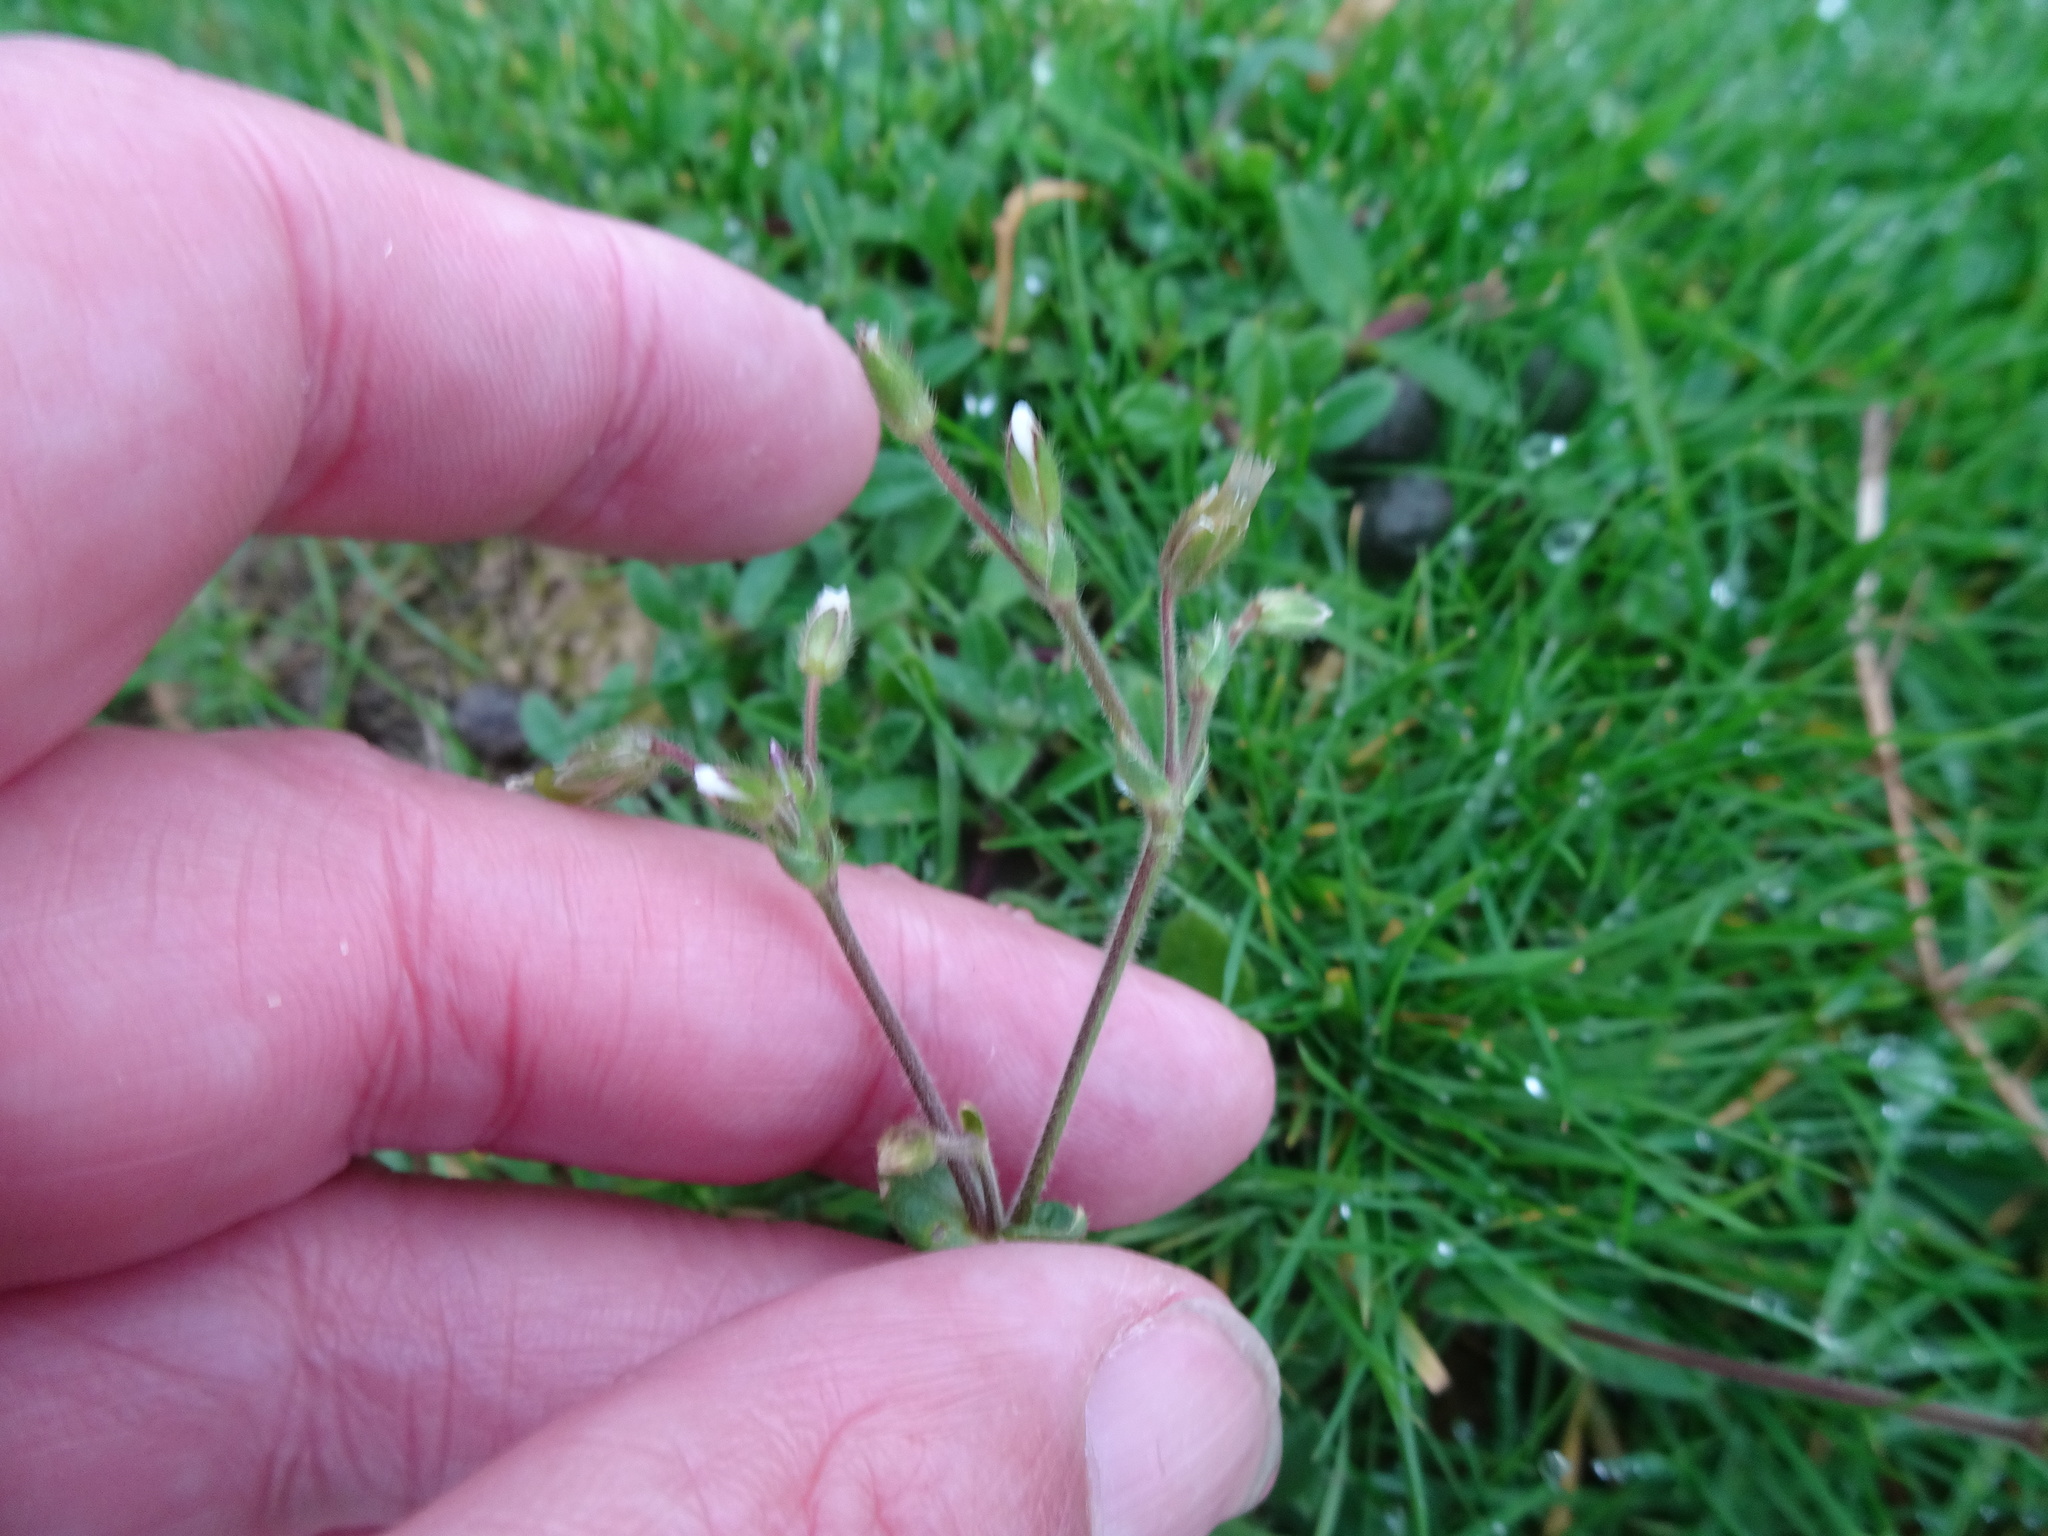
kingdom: Plantae
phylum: Tracheophyta
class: Magnoliopsida
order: Caryophyllales
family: Caryophyllaceae
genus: Cerastium
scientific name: Cerastium fontanum
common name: Common mouse-ear
